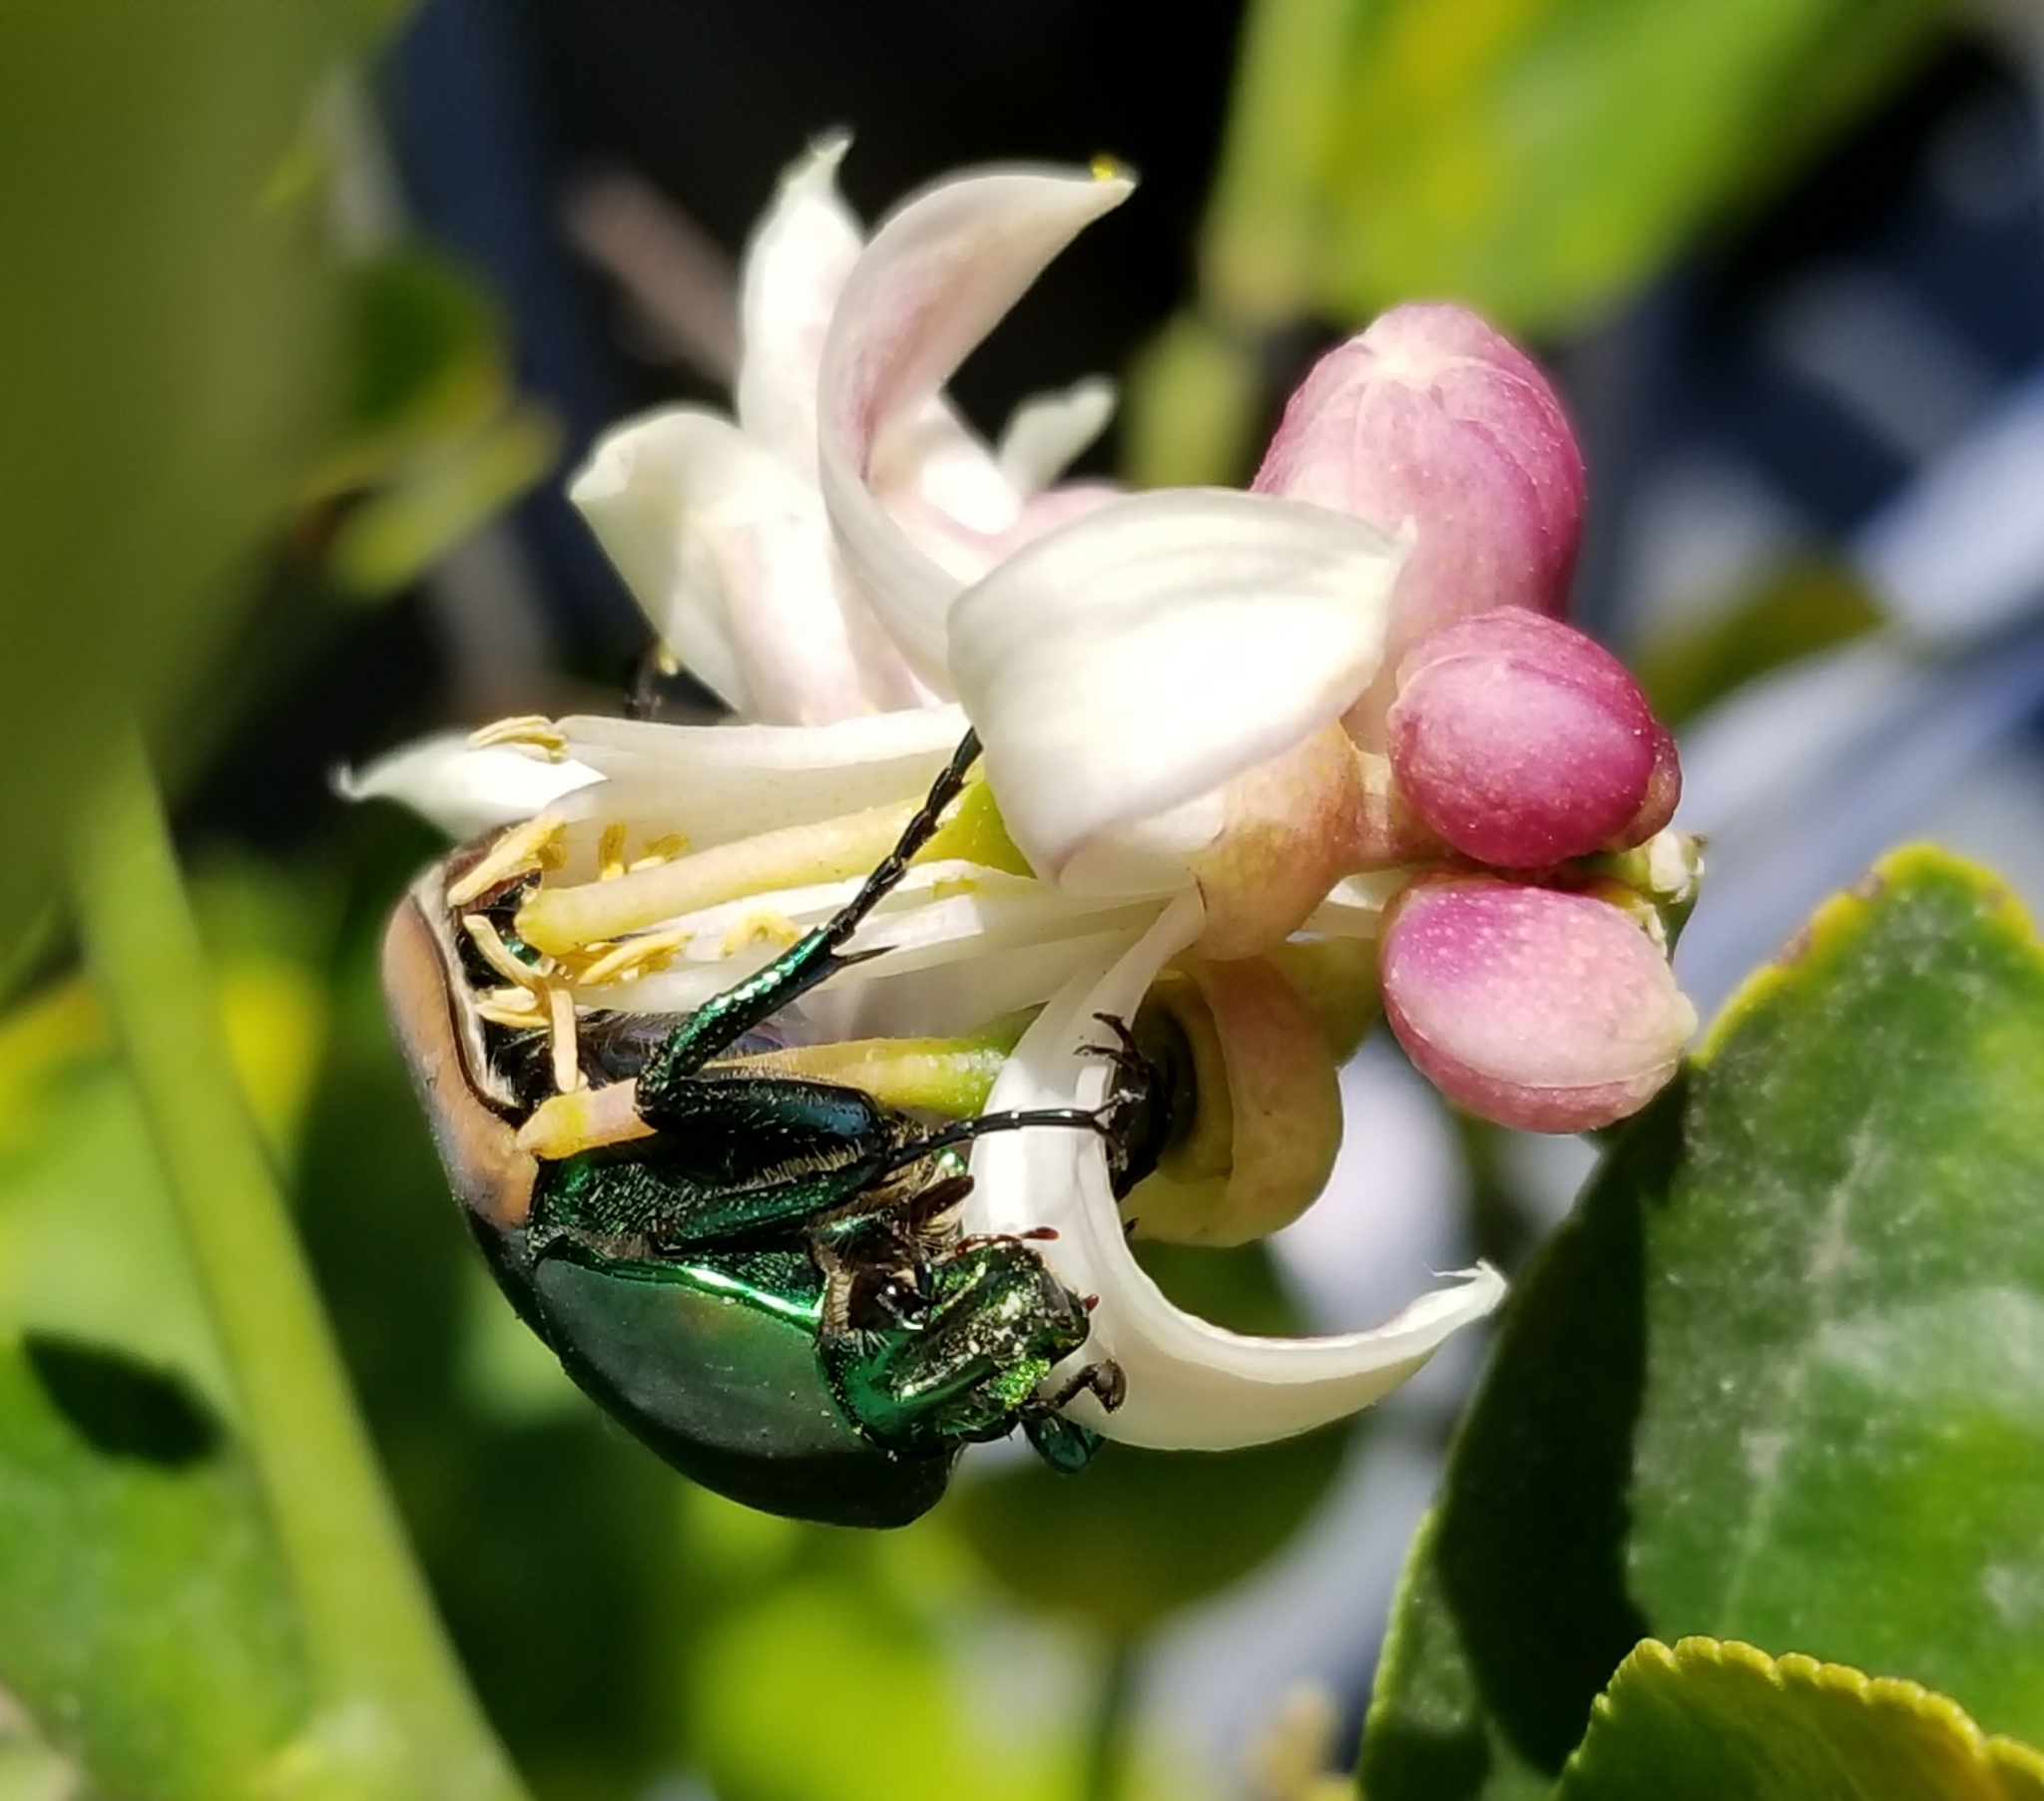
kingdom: Animalia
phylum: Arthropoda
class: Insecta
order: Coleoptera
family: Scarabaeidae
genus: Cotinis
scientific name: Cotinis mutabilis
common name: Figeater beetle
